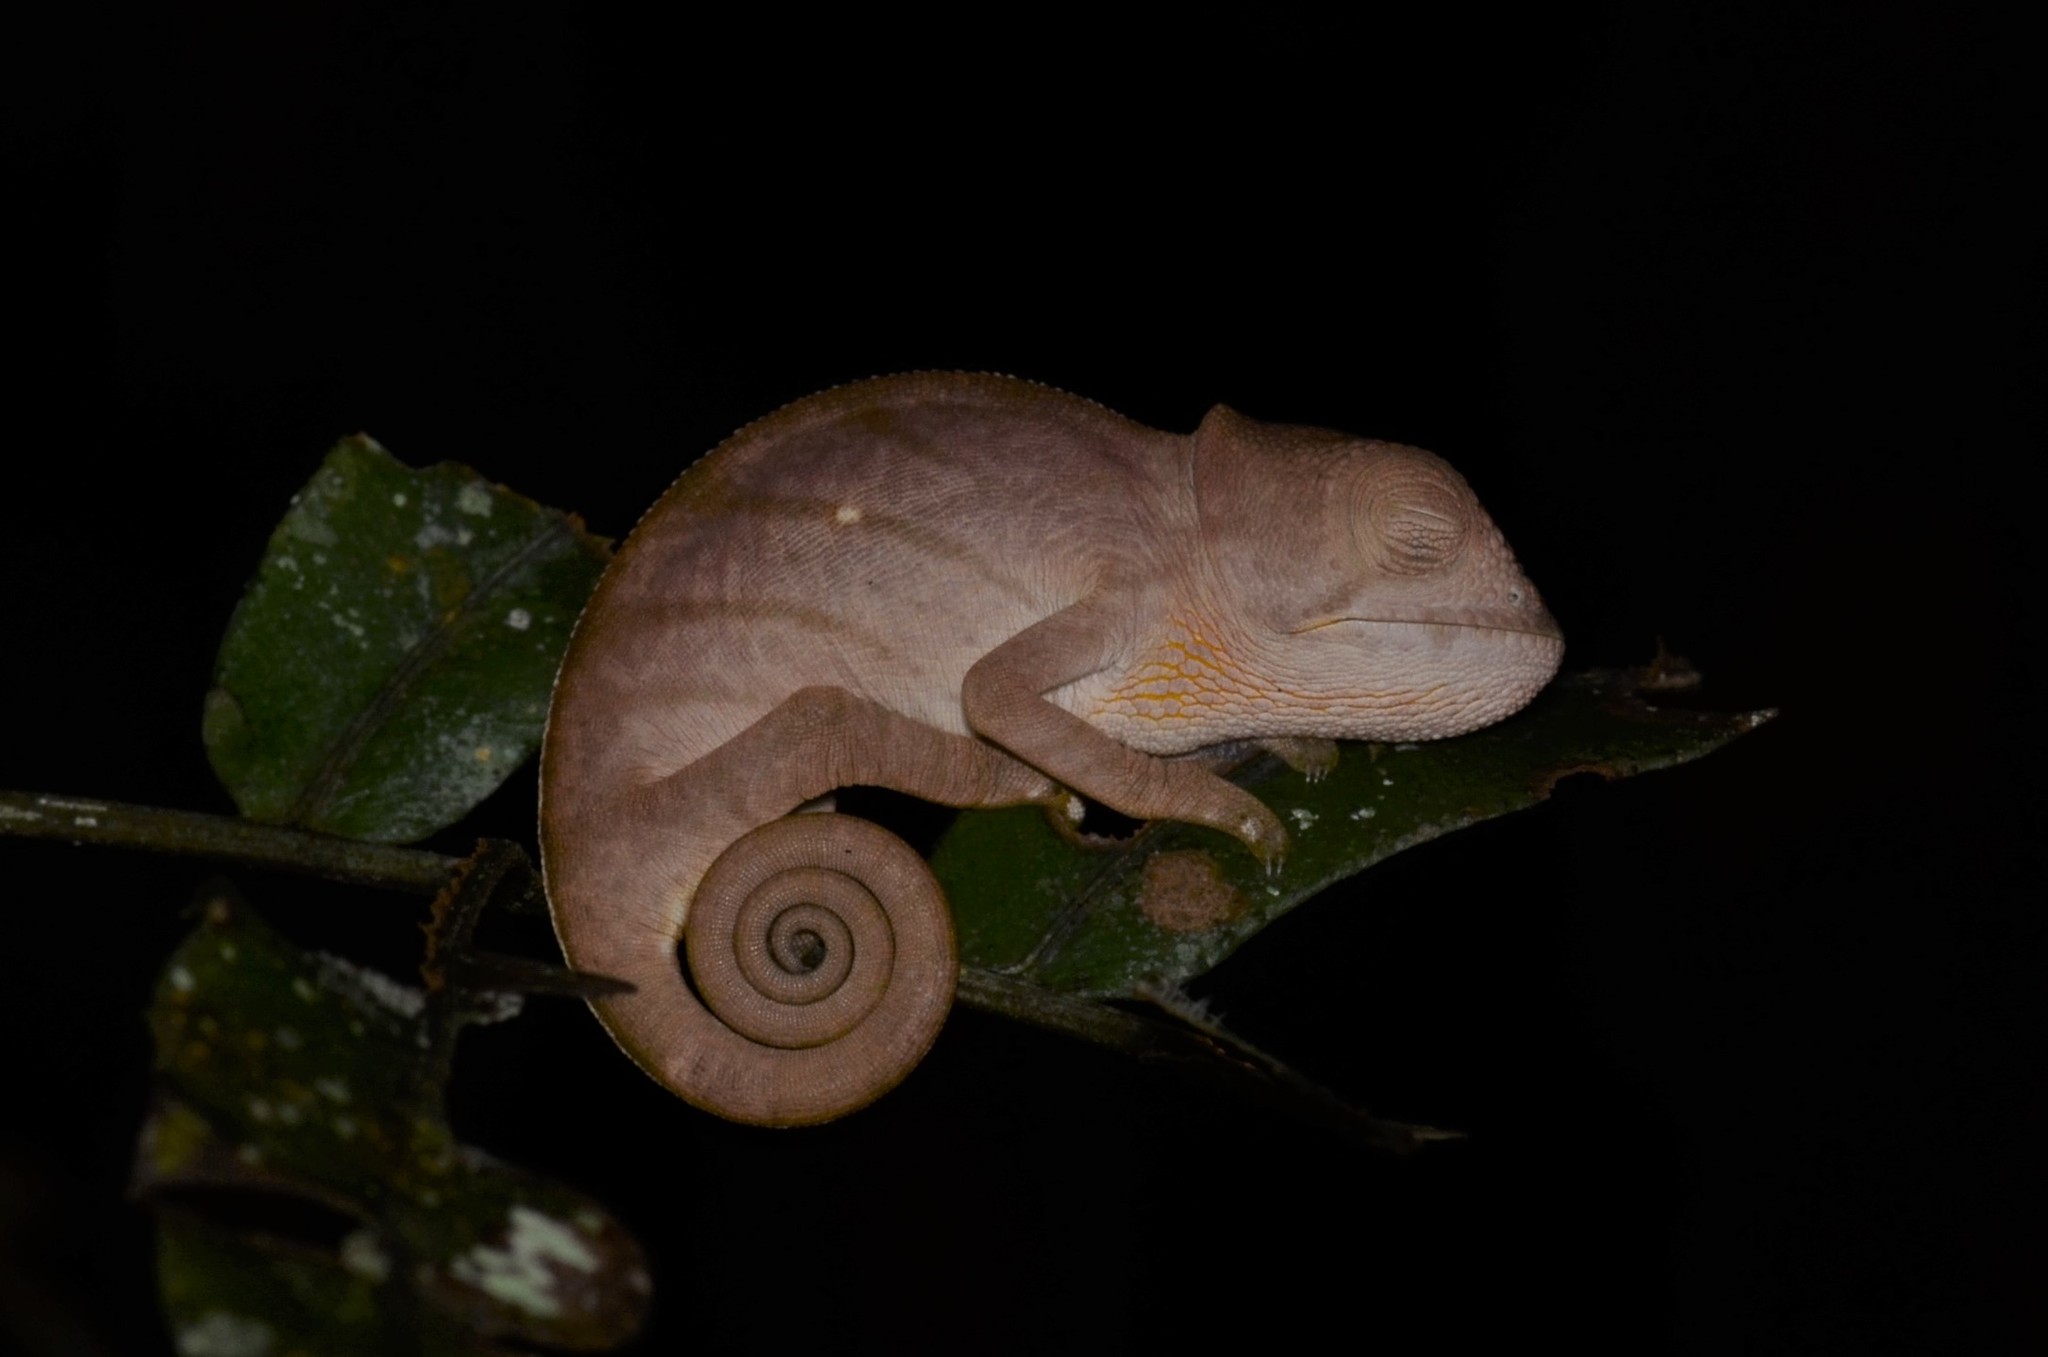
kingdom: Animalia
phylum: Chordata
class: Squamata
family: Chamaeleonidae
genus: Calumma
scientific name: Calumma parsonii
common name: Parson's chameleon
